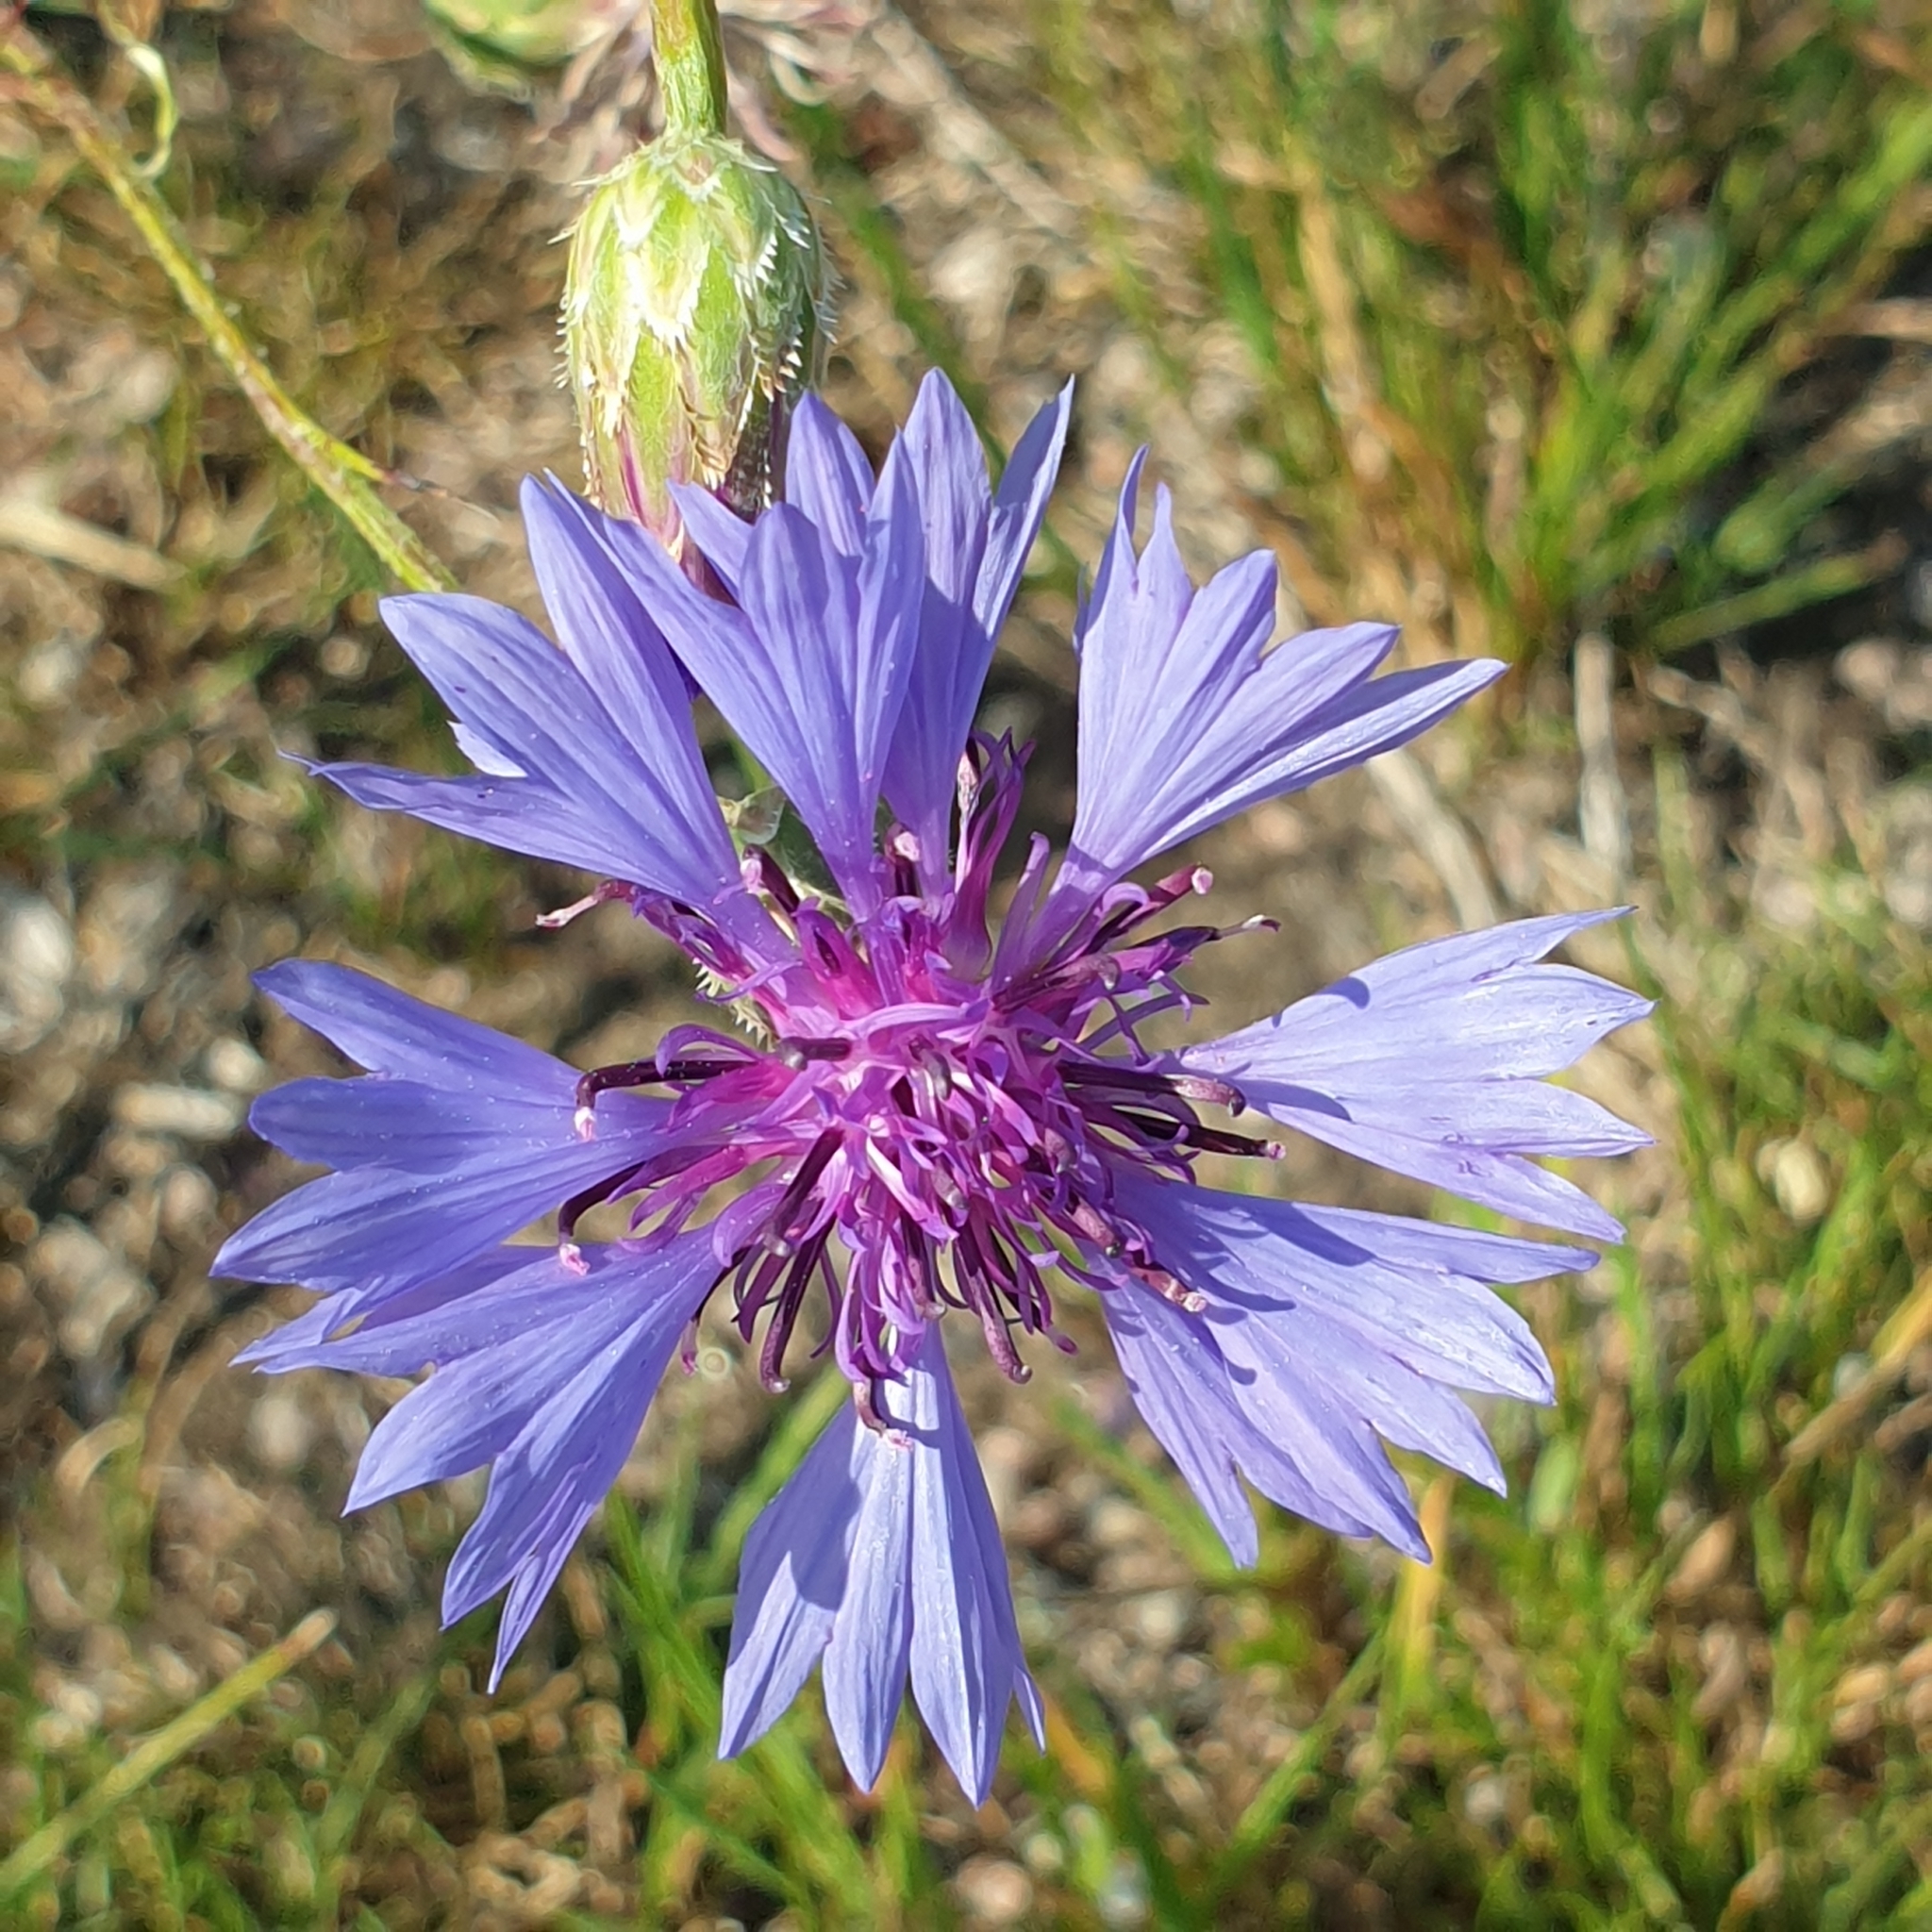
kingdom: Plantae
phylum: Tracheophyta
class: Magnoliopsida
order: Asterales
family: Asteraceae
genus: Centaurea
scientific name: Centaurea cyanus
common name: Cornflower
